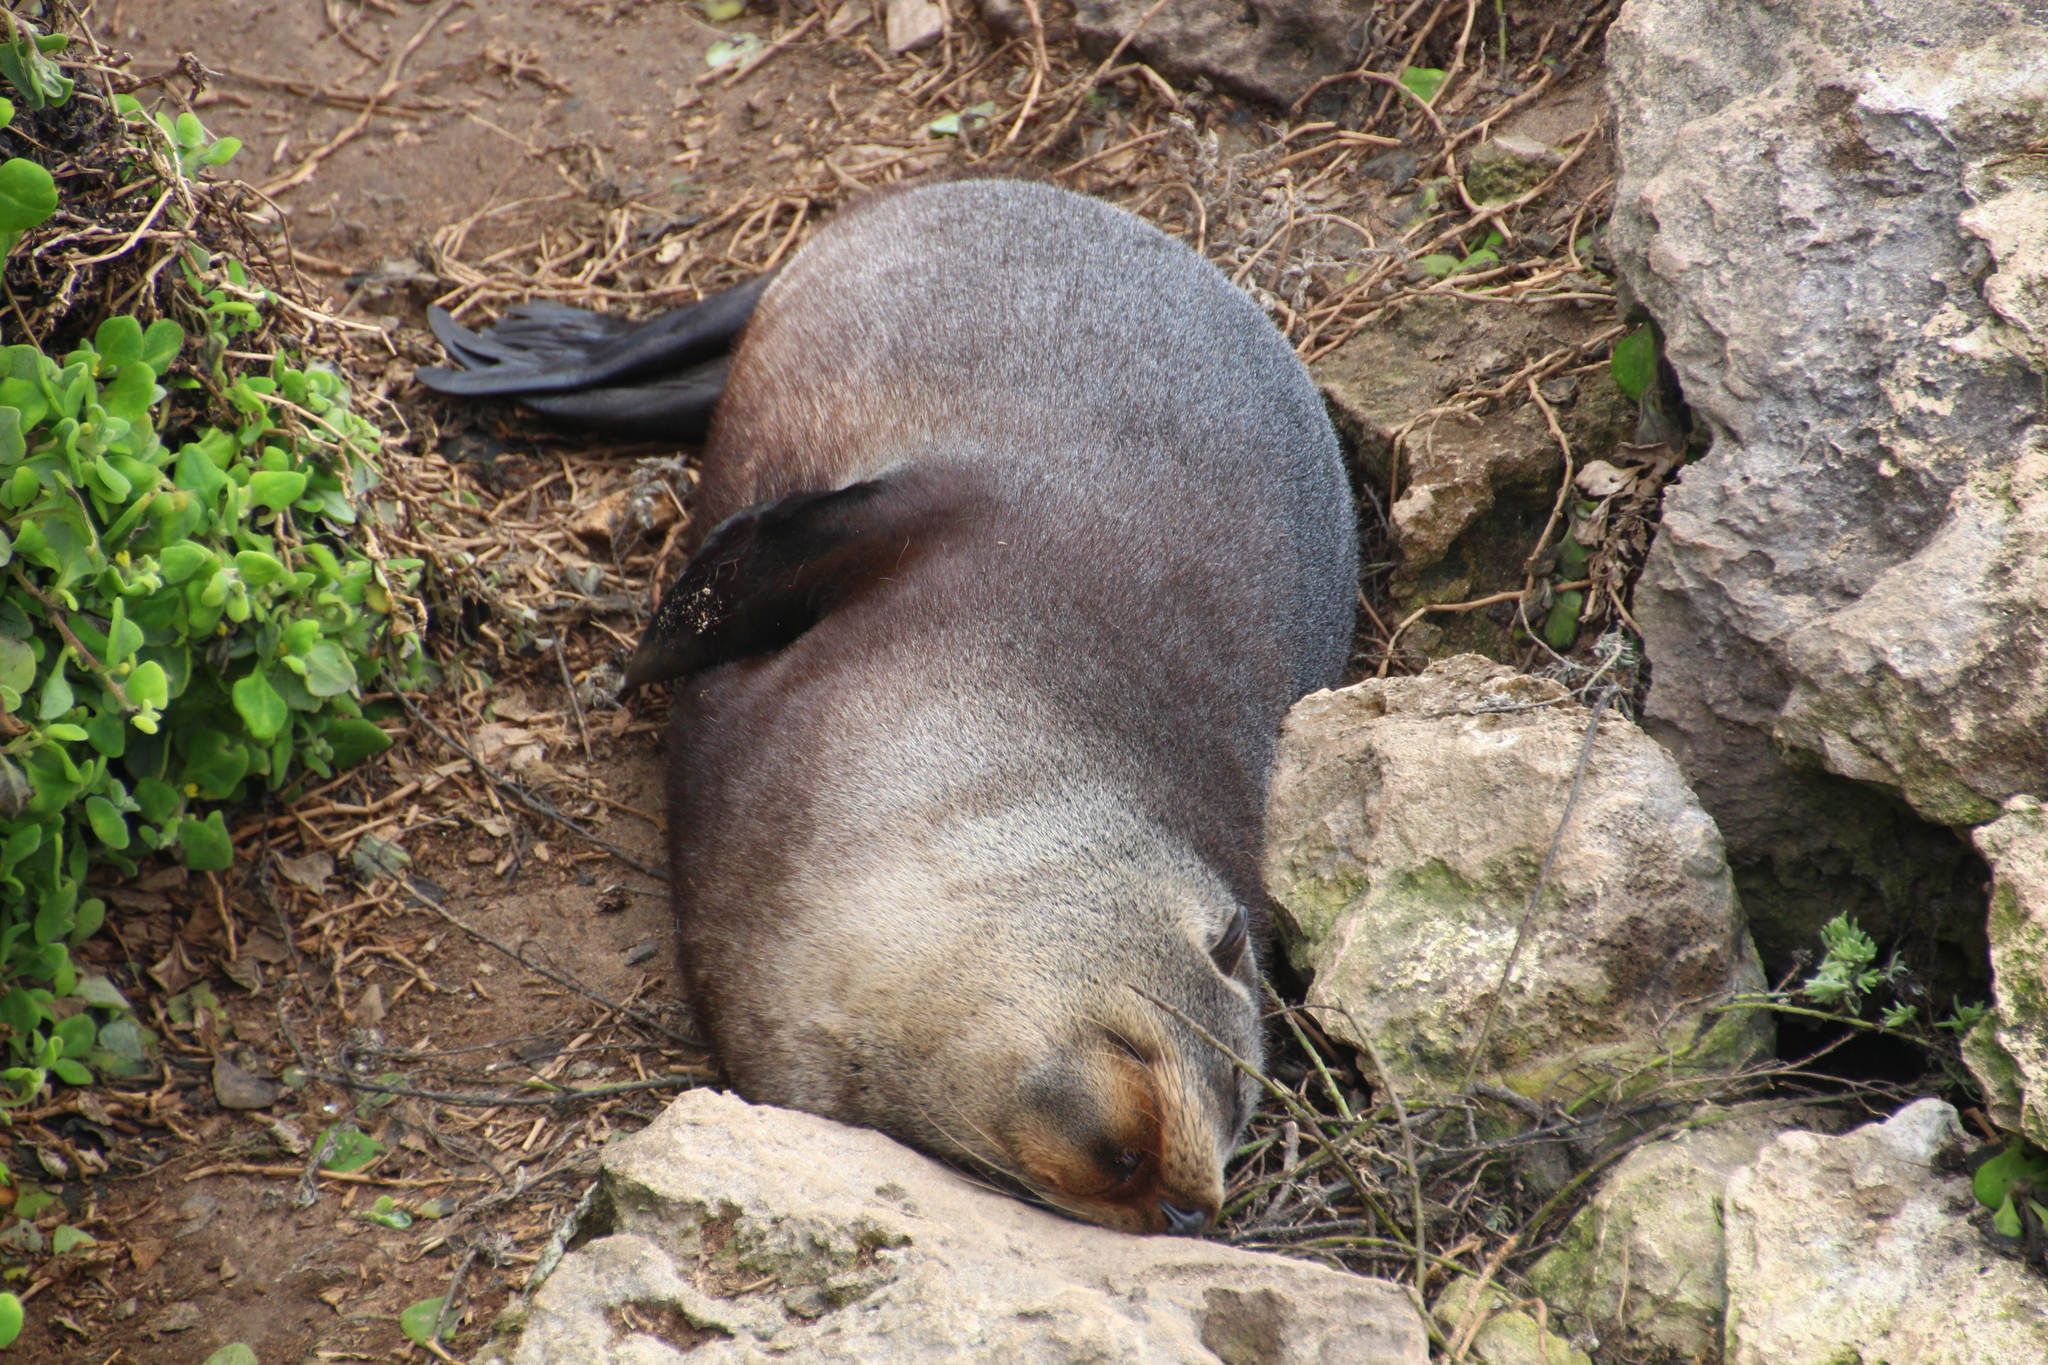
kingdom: Animalia
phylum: Chordata
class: Mammalia
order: Carnivora
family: Otariidae
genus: Arctocephalus
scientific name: Arctocephalus forsteri
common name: New zealand fur seal
